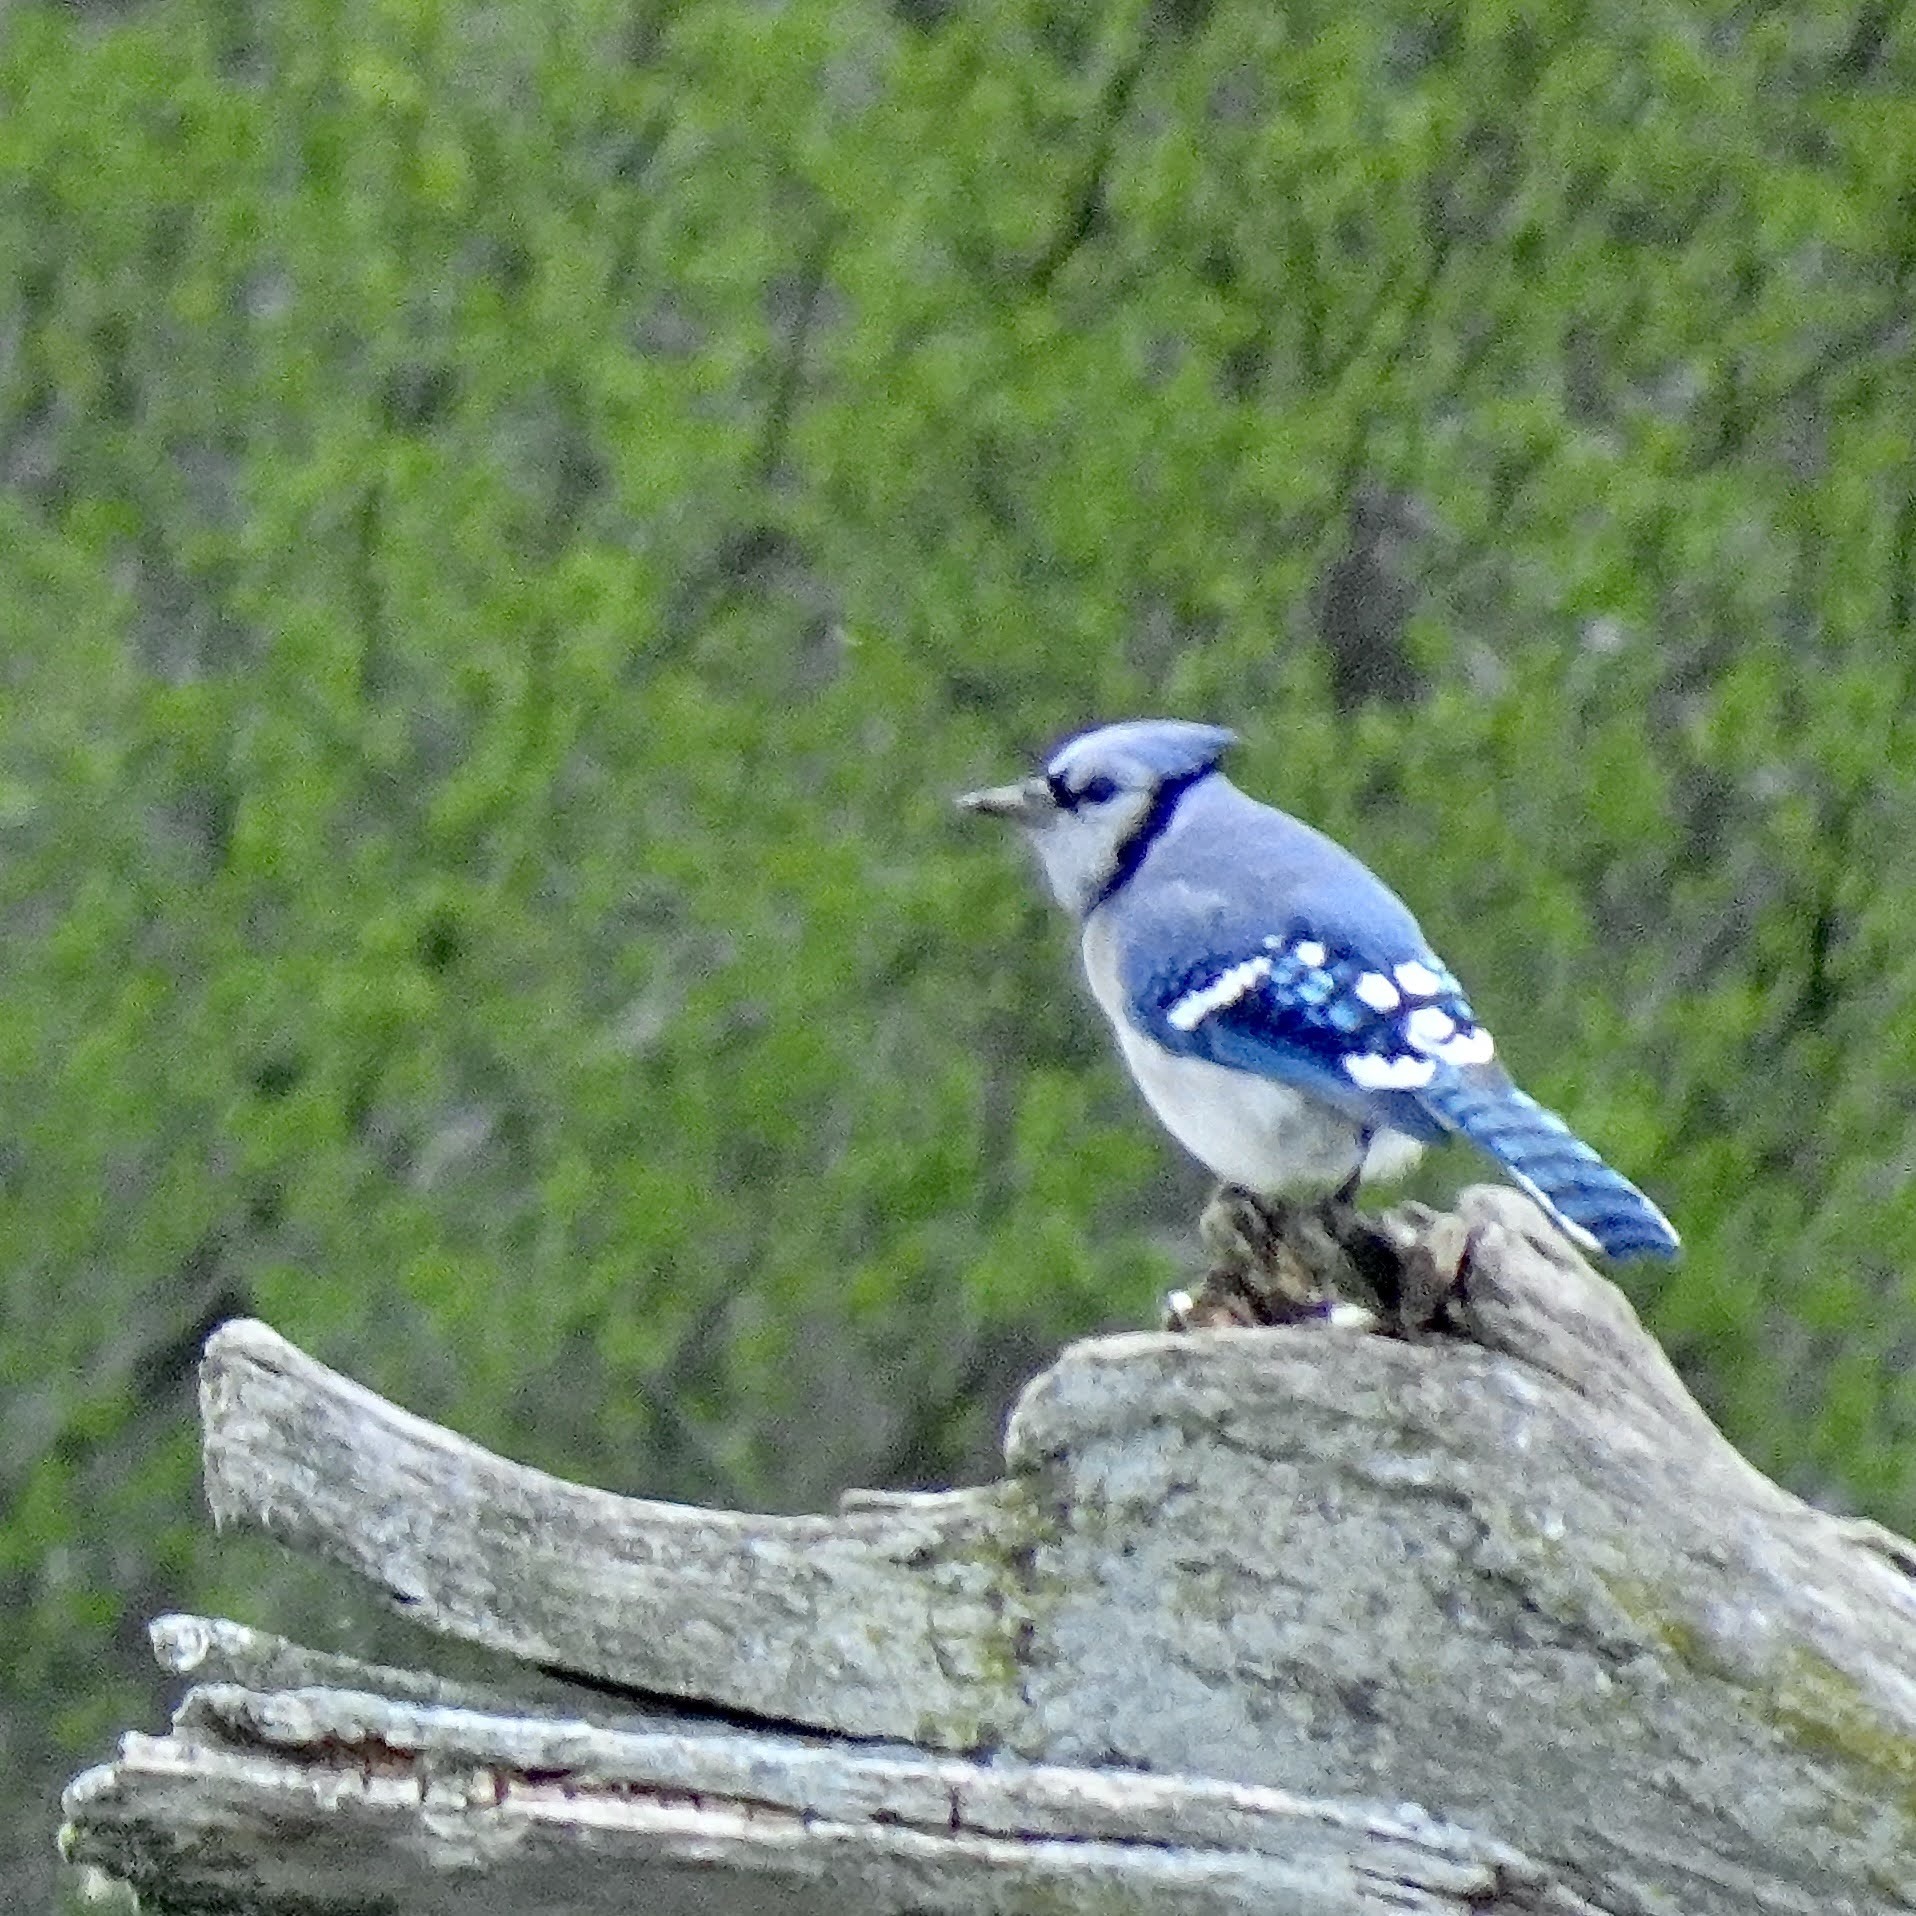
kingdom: Animalia
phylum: Chordata
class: Aves
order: Passeriformes
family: Corvidae
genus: Cyanocitta
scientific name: Cyanocitta cristata
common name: Blue jay
